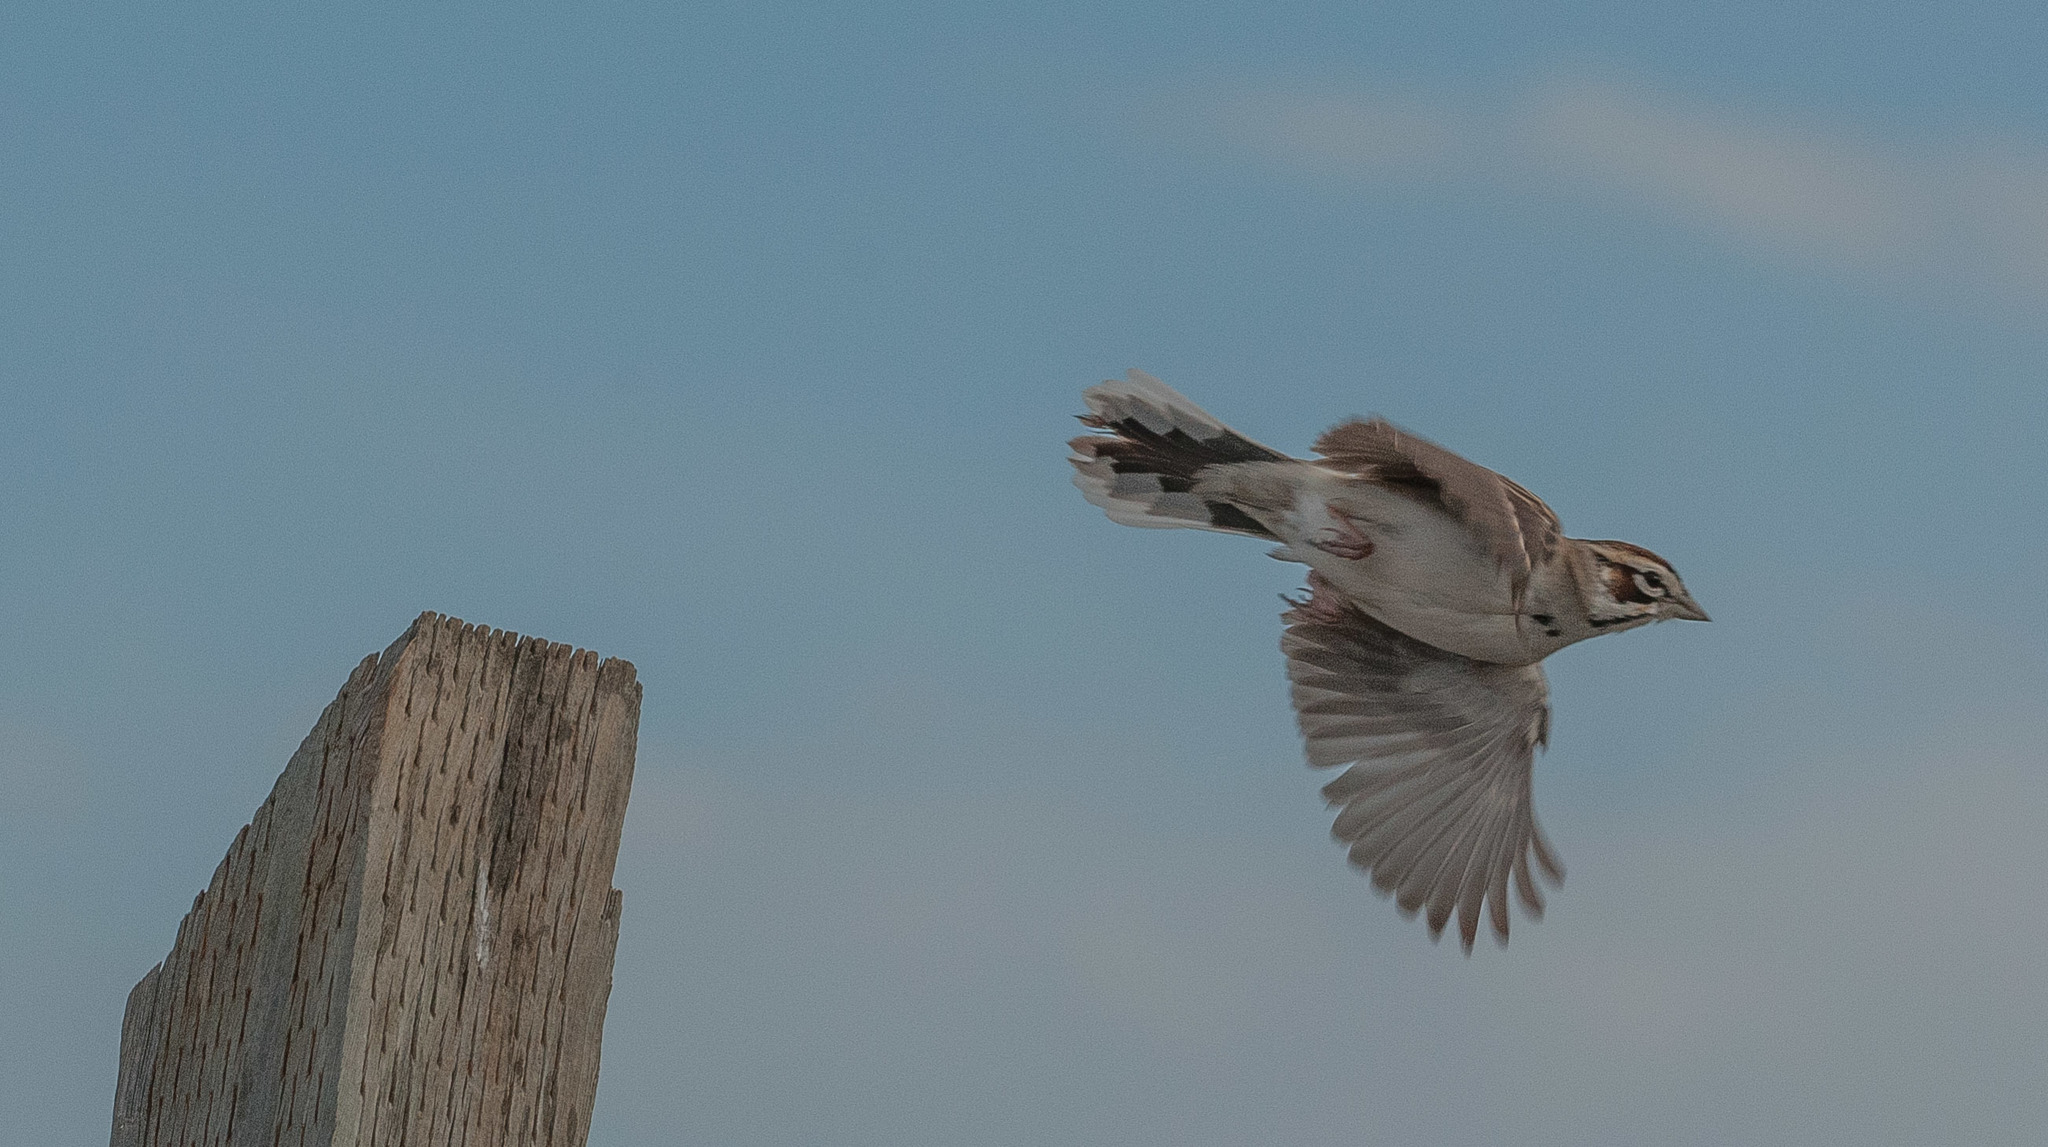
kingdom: Animalia
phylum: Chordata
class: Aves
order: Passeriformes
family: Passerellidae
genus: Chondestes
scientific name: Chondestes grammacus
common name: Lark sparrow
